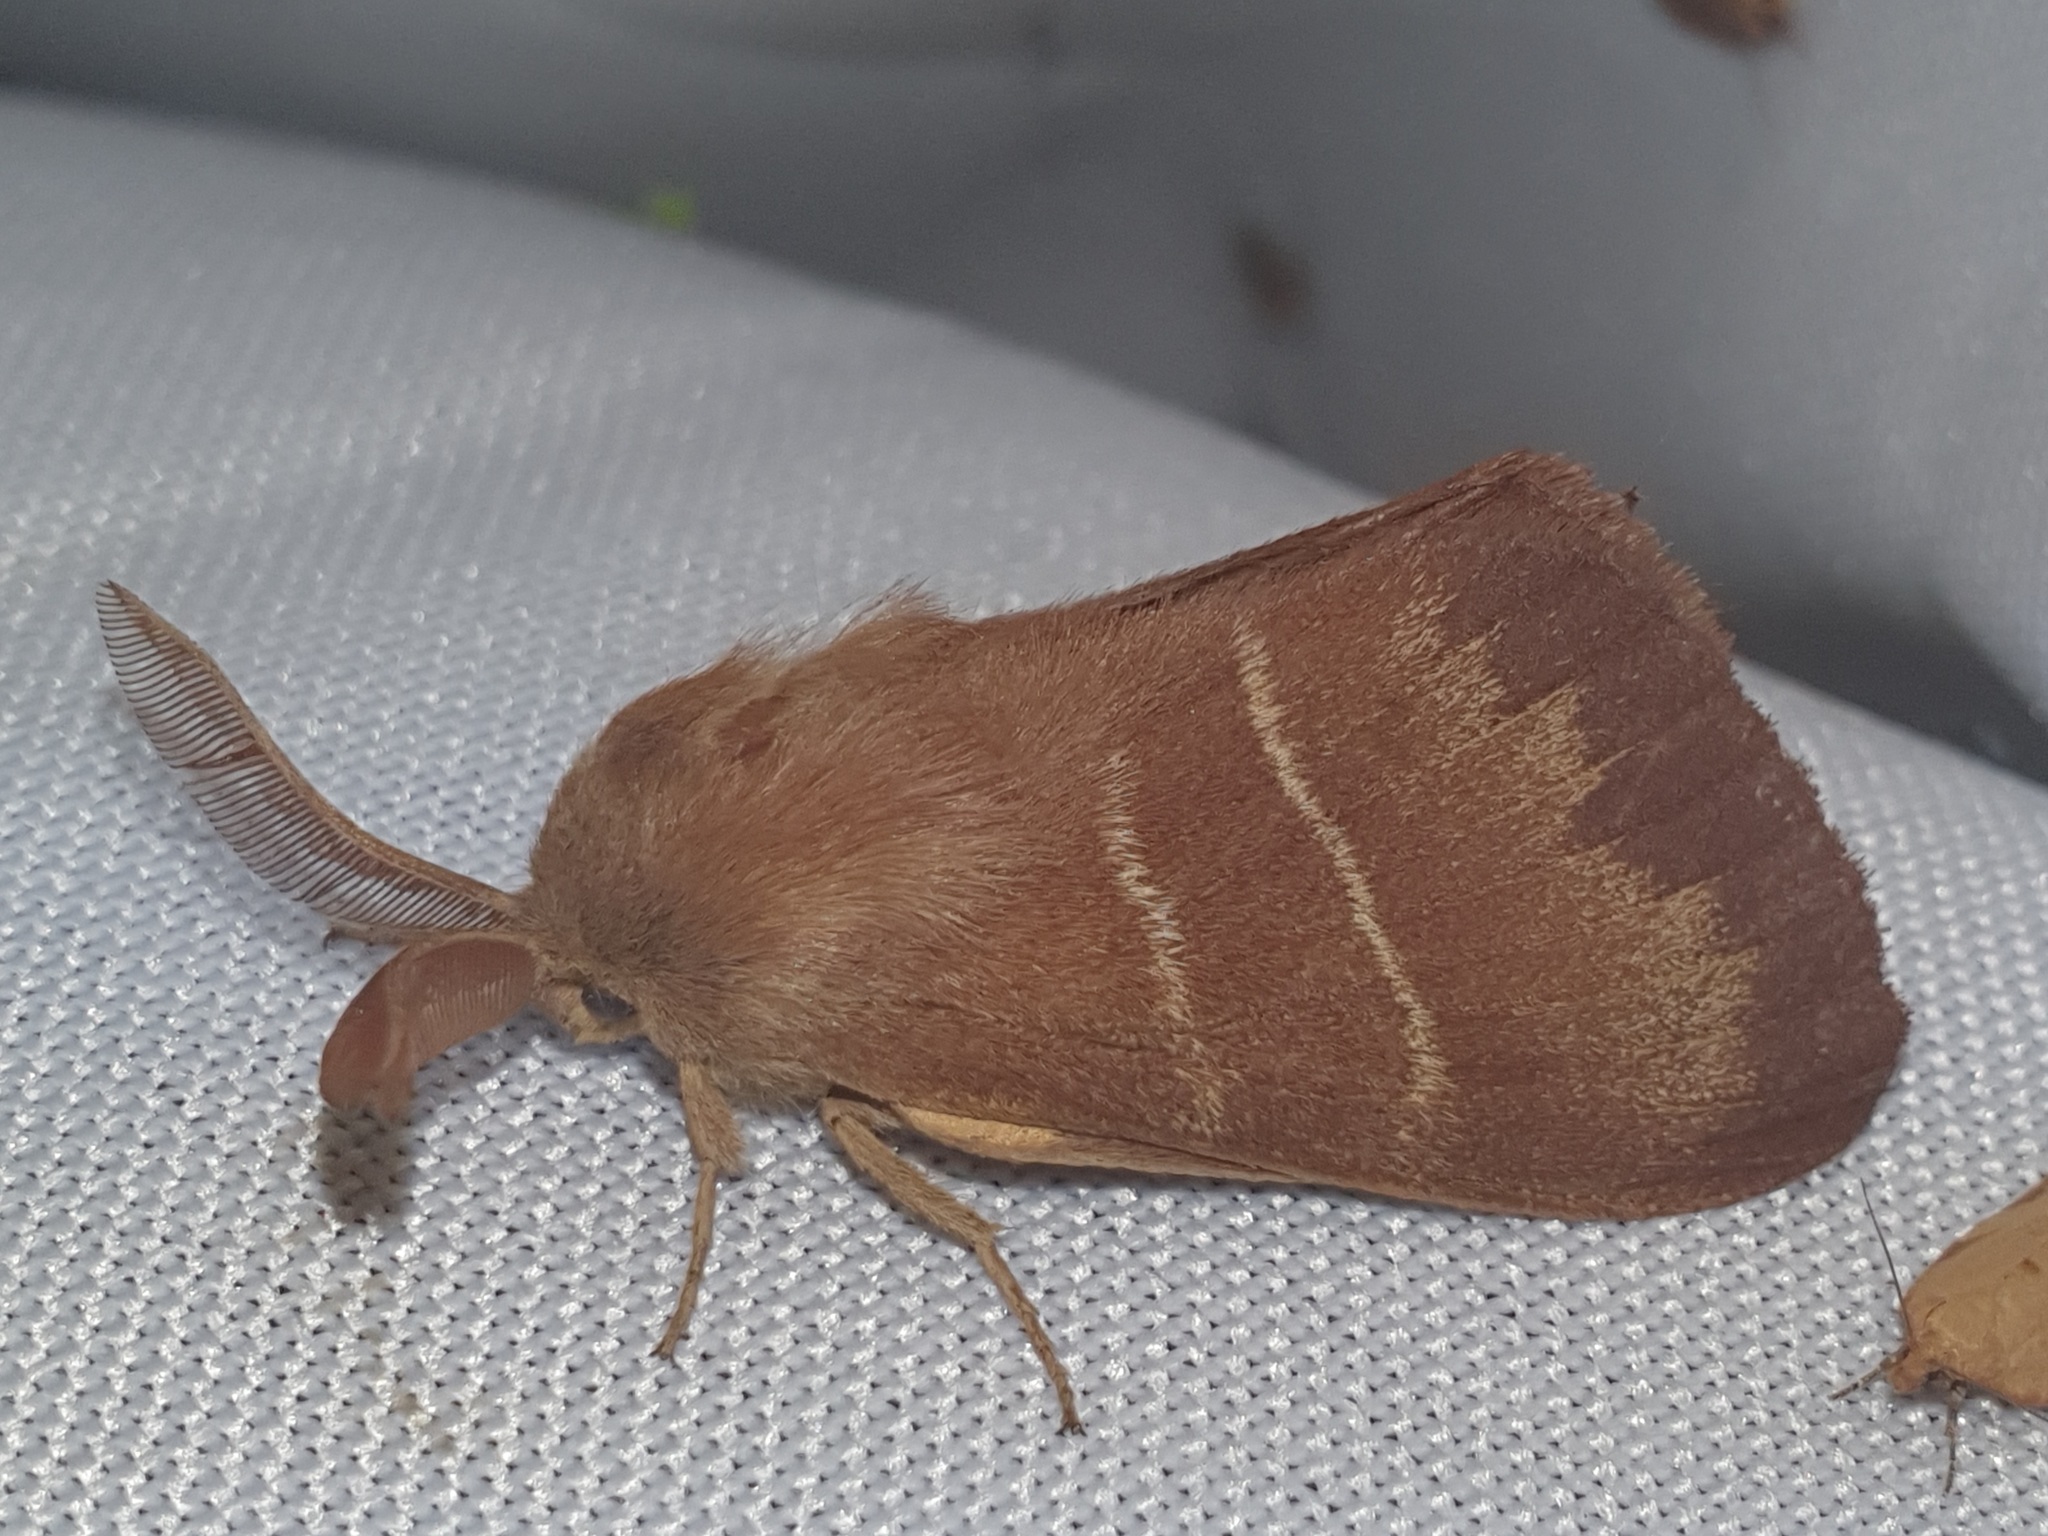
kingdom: Animalia
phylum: Arthropoda
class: Insecta
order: Lepidoptera
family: Lasiocampidae
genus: Macrothylacia
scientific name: Macrothylacia rubi
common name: Fox moth
